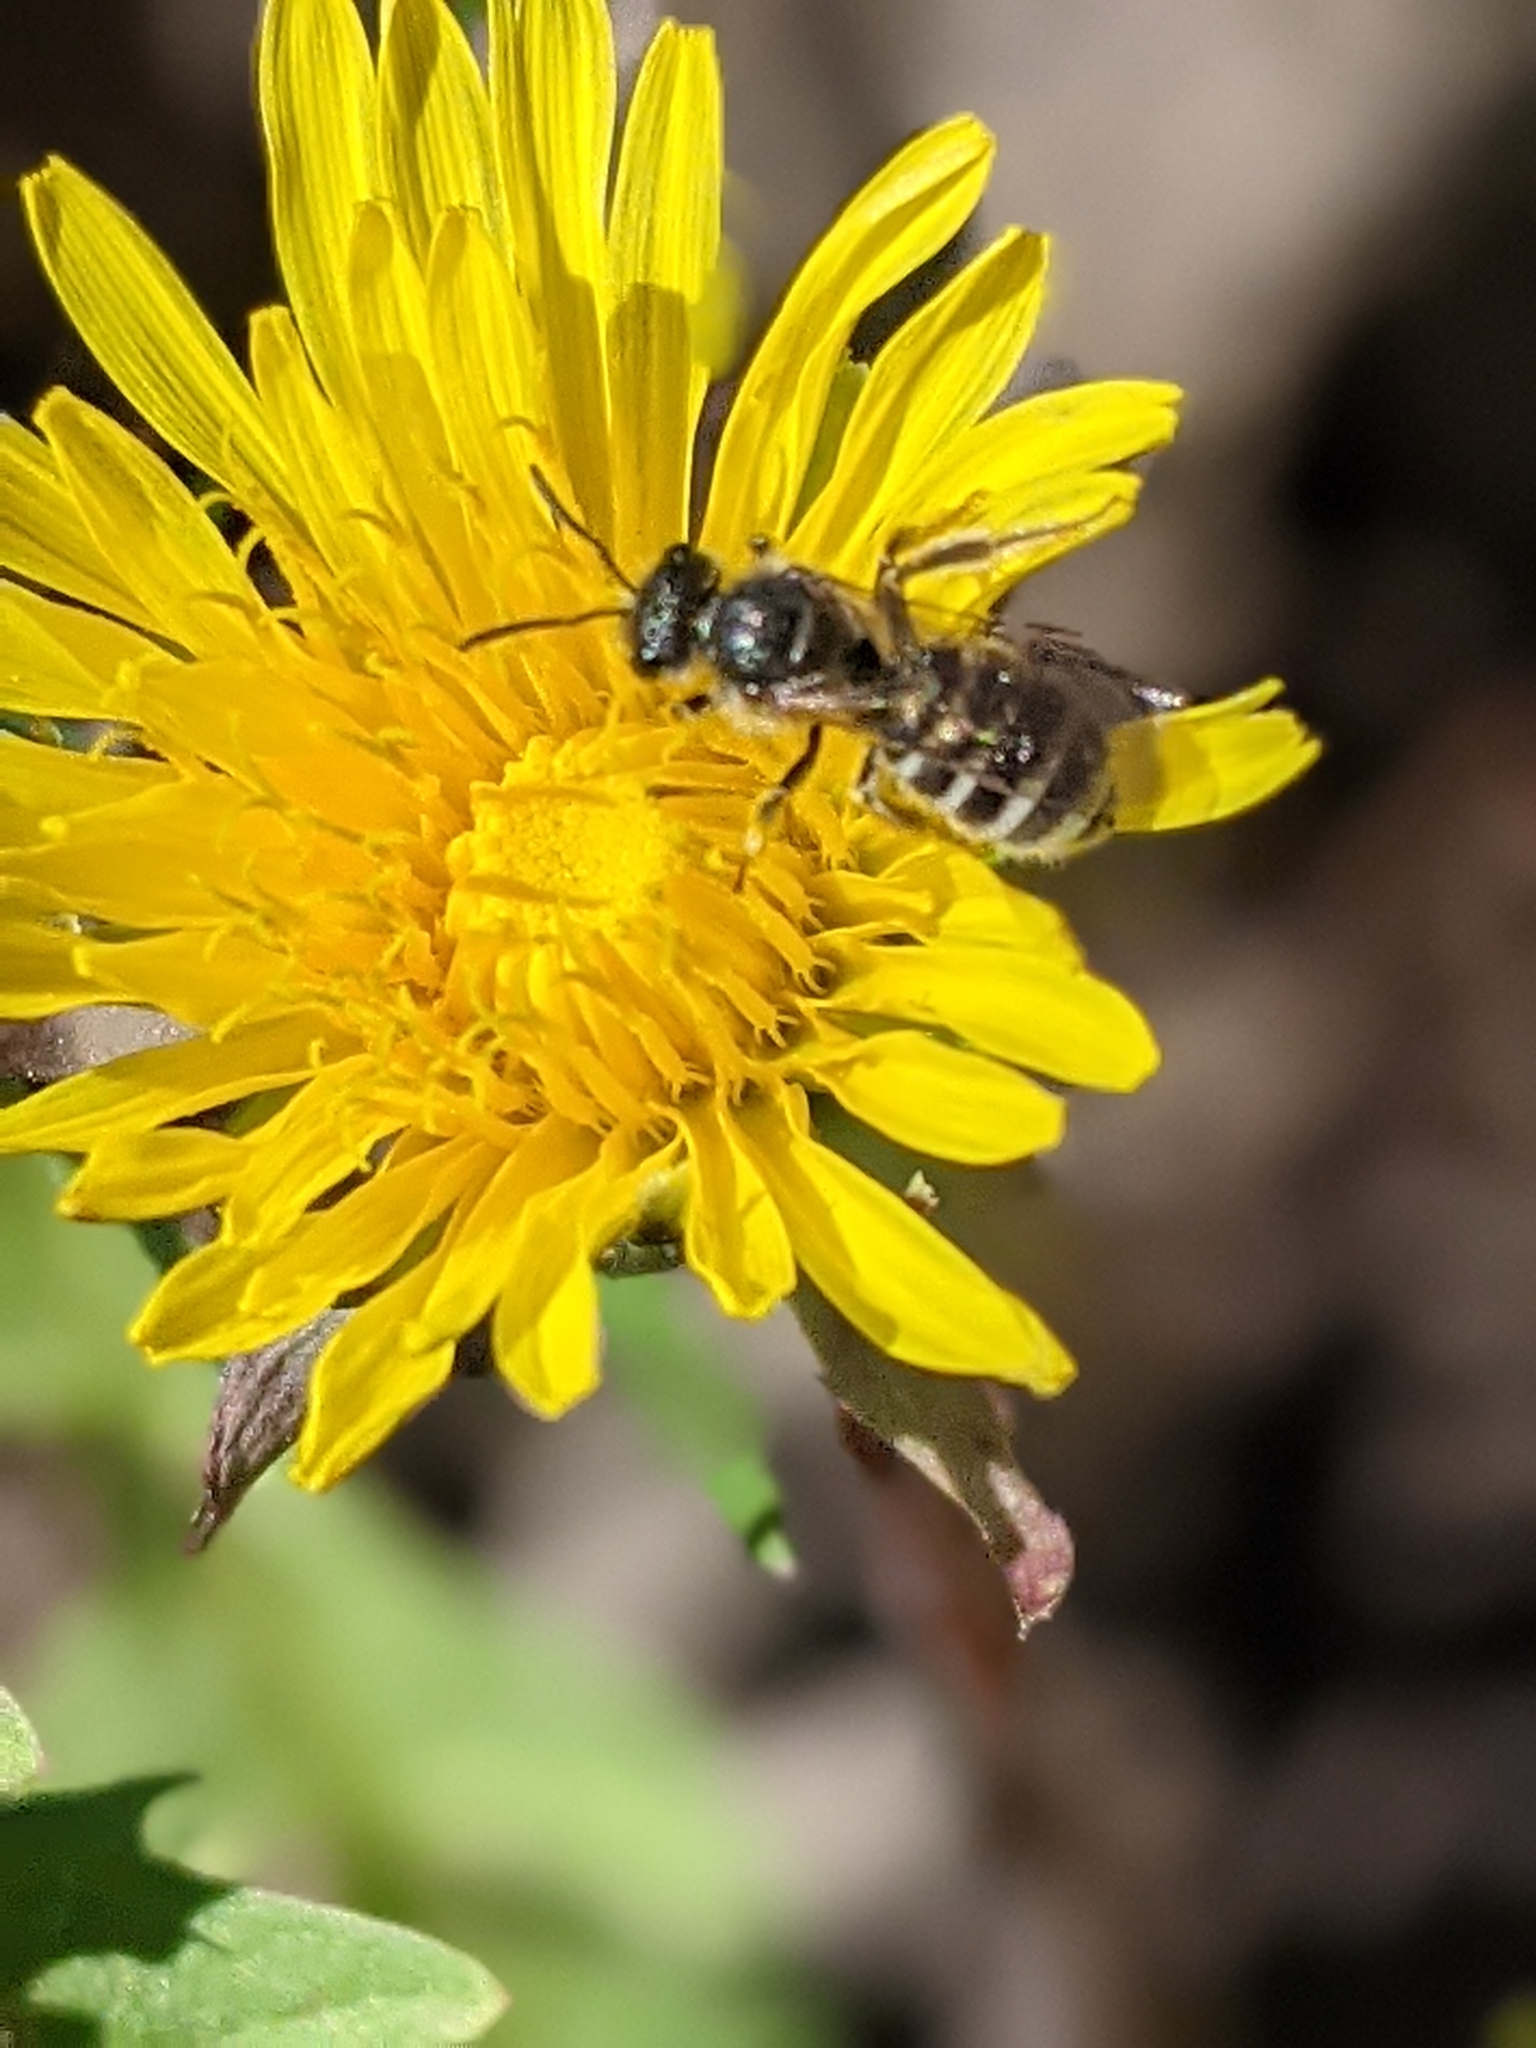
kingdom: Plantae
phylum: Tracheophyta
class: Magnoliopsida
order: Asterales
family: Asteraceae
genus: Taraxacum
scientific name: Taraxacum officinale
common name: Common dandelion
